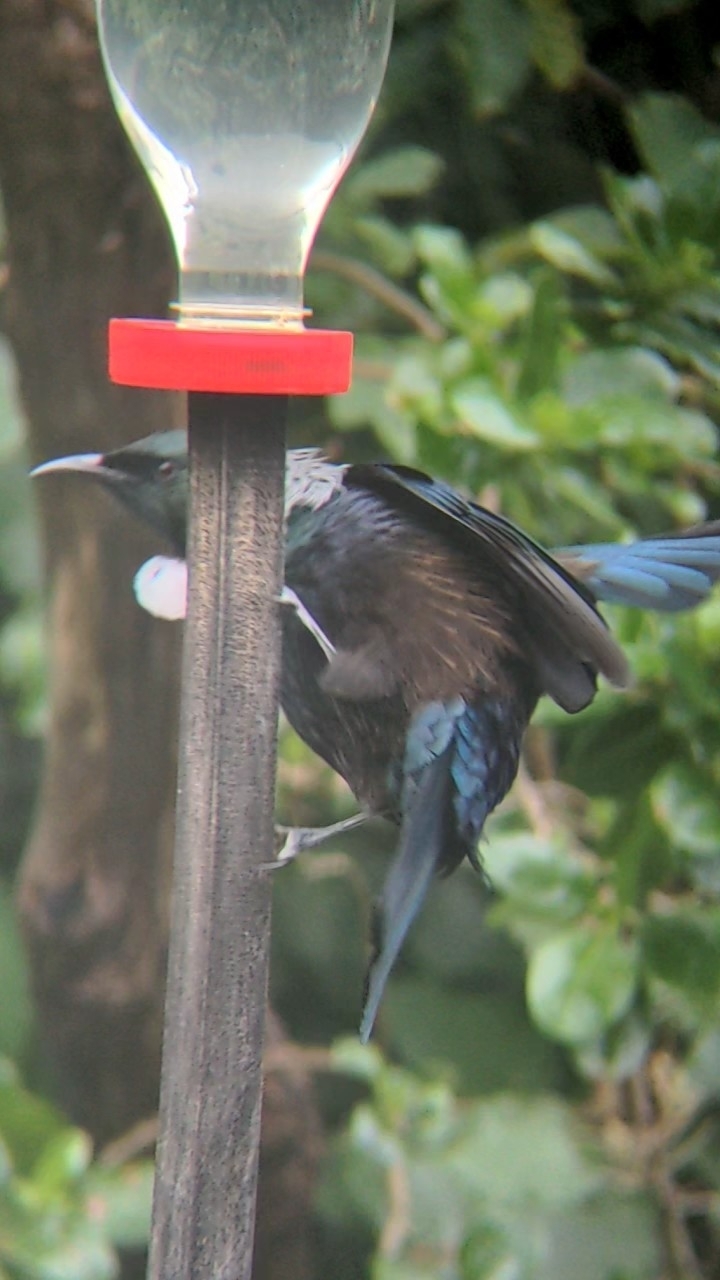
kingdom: Animalia
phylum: Chordata
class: Aves
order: Passeriformes
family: Meliphagidae
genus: Prosthemadera
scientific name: Prosthemadera novaeseelandiae
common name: Tui
